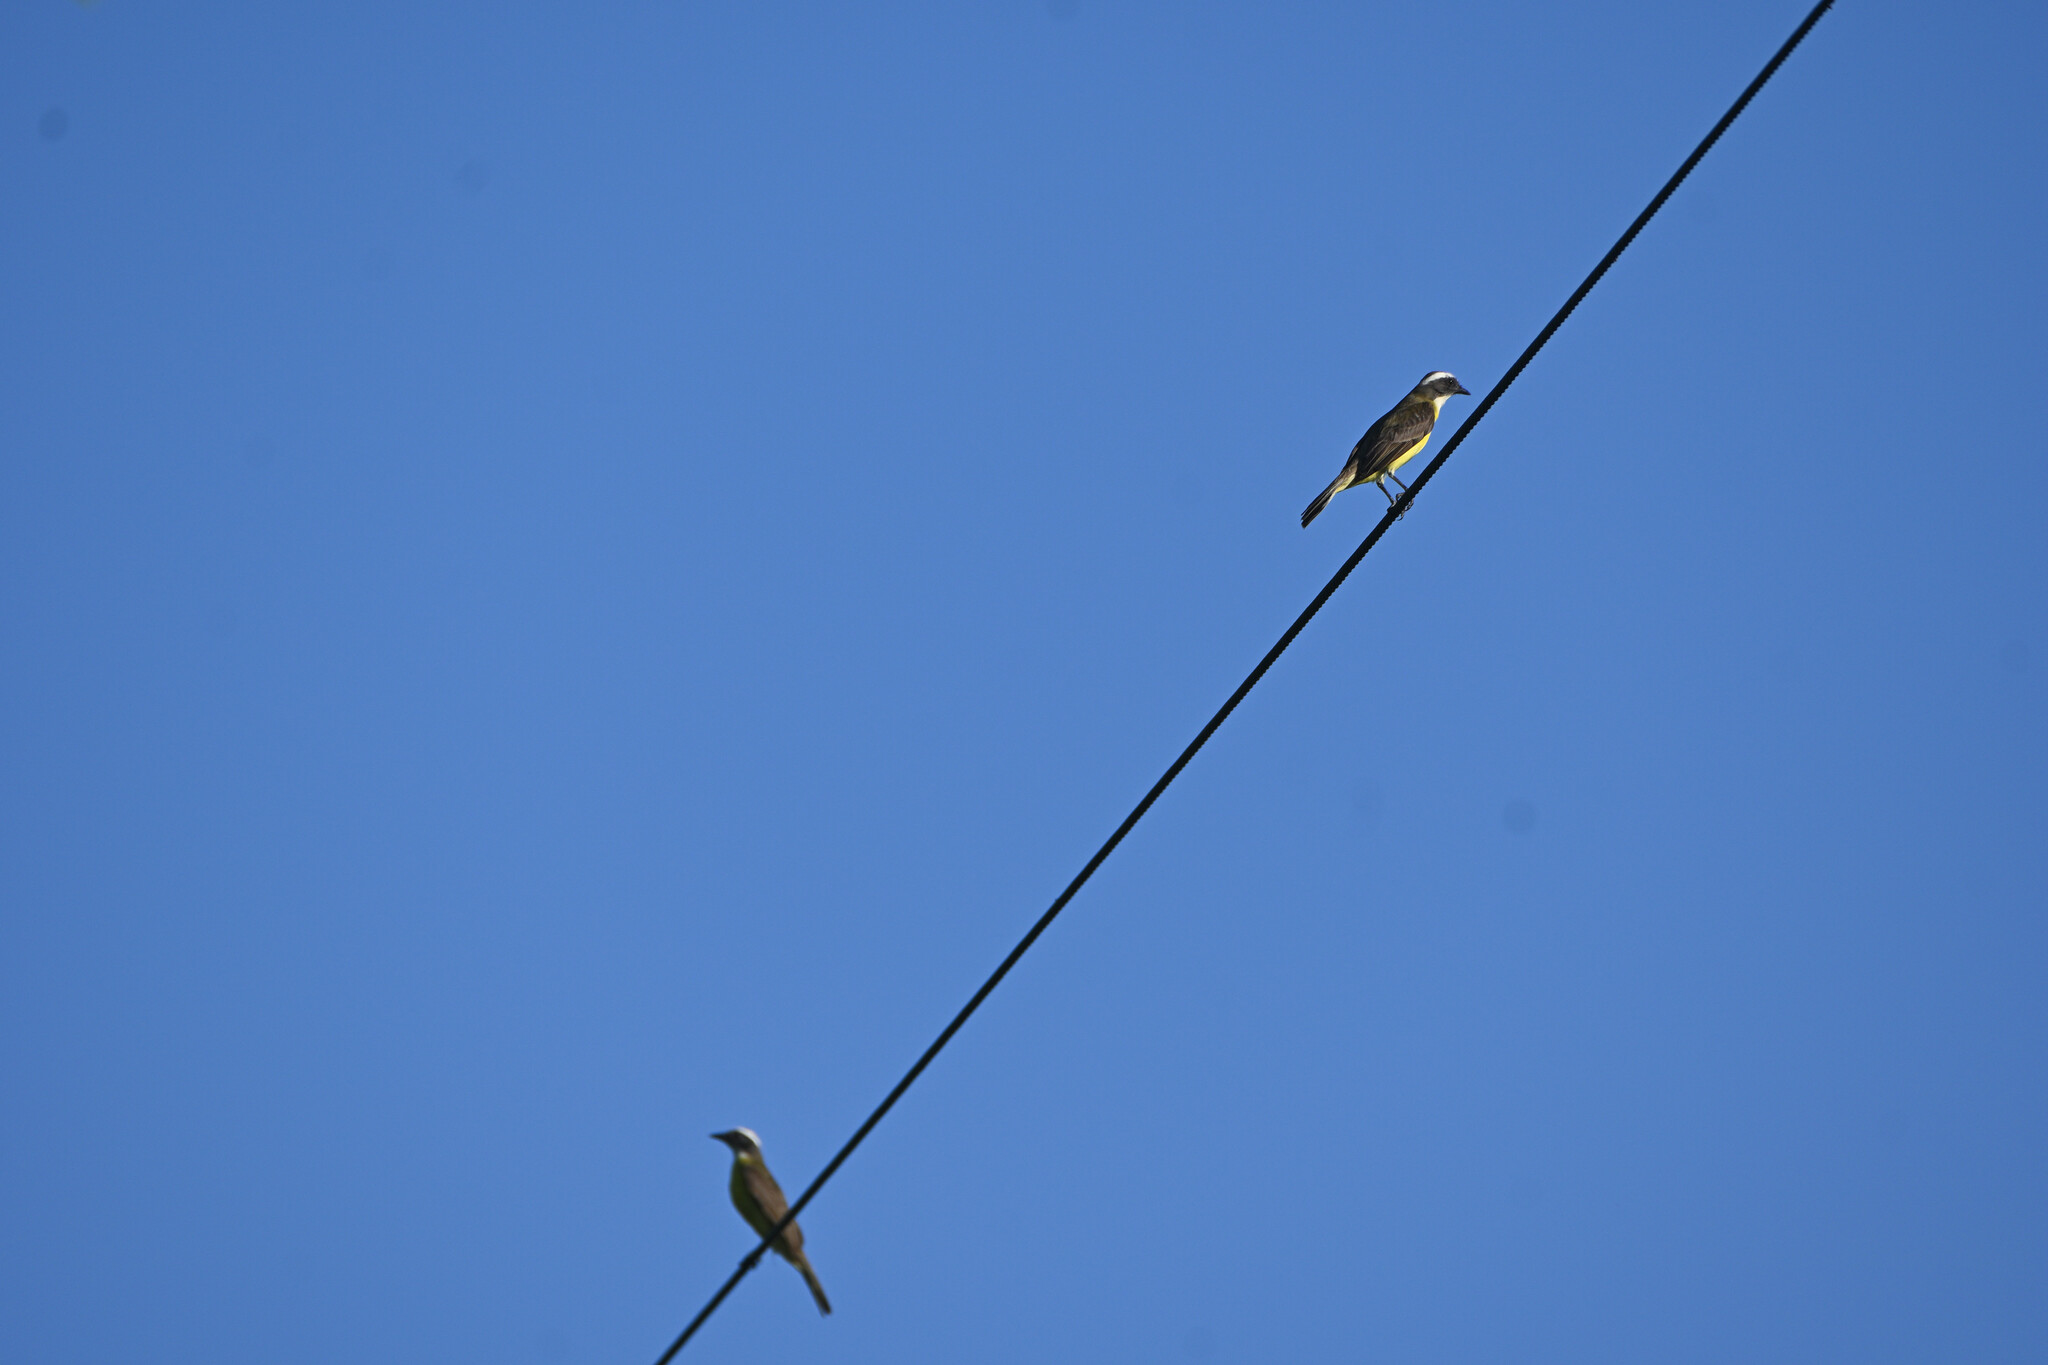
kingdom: Animalia
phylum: Chordata
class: Aves
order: Passeriformes
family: Tyrannidae
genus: Myiozetetes
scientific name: Myiozetetes similis
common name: Social flycatcher
